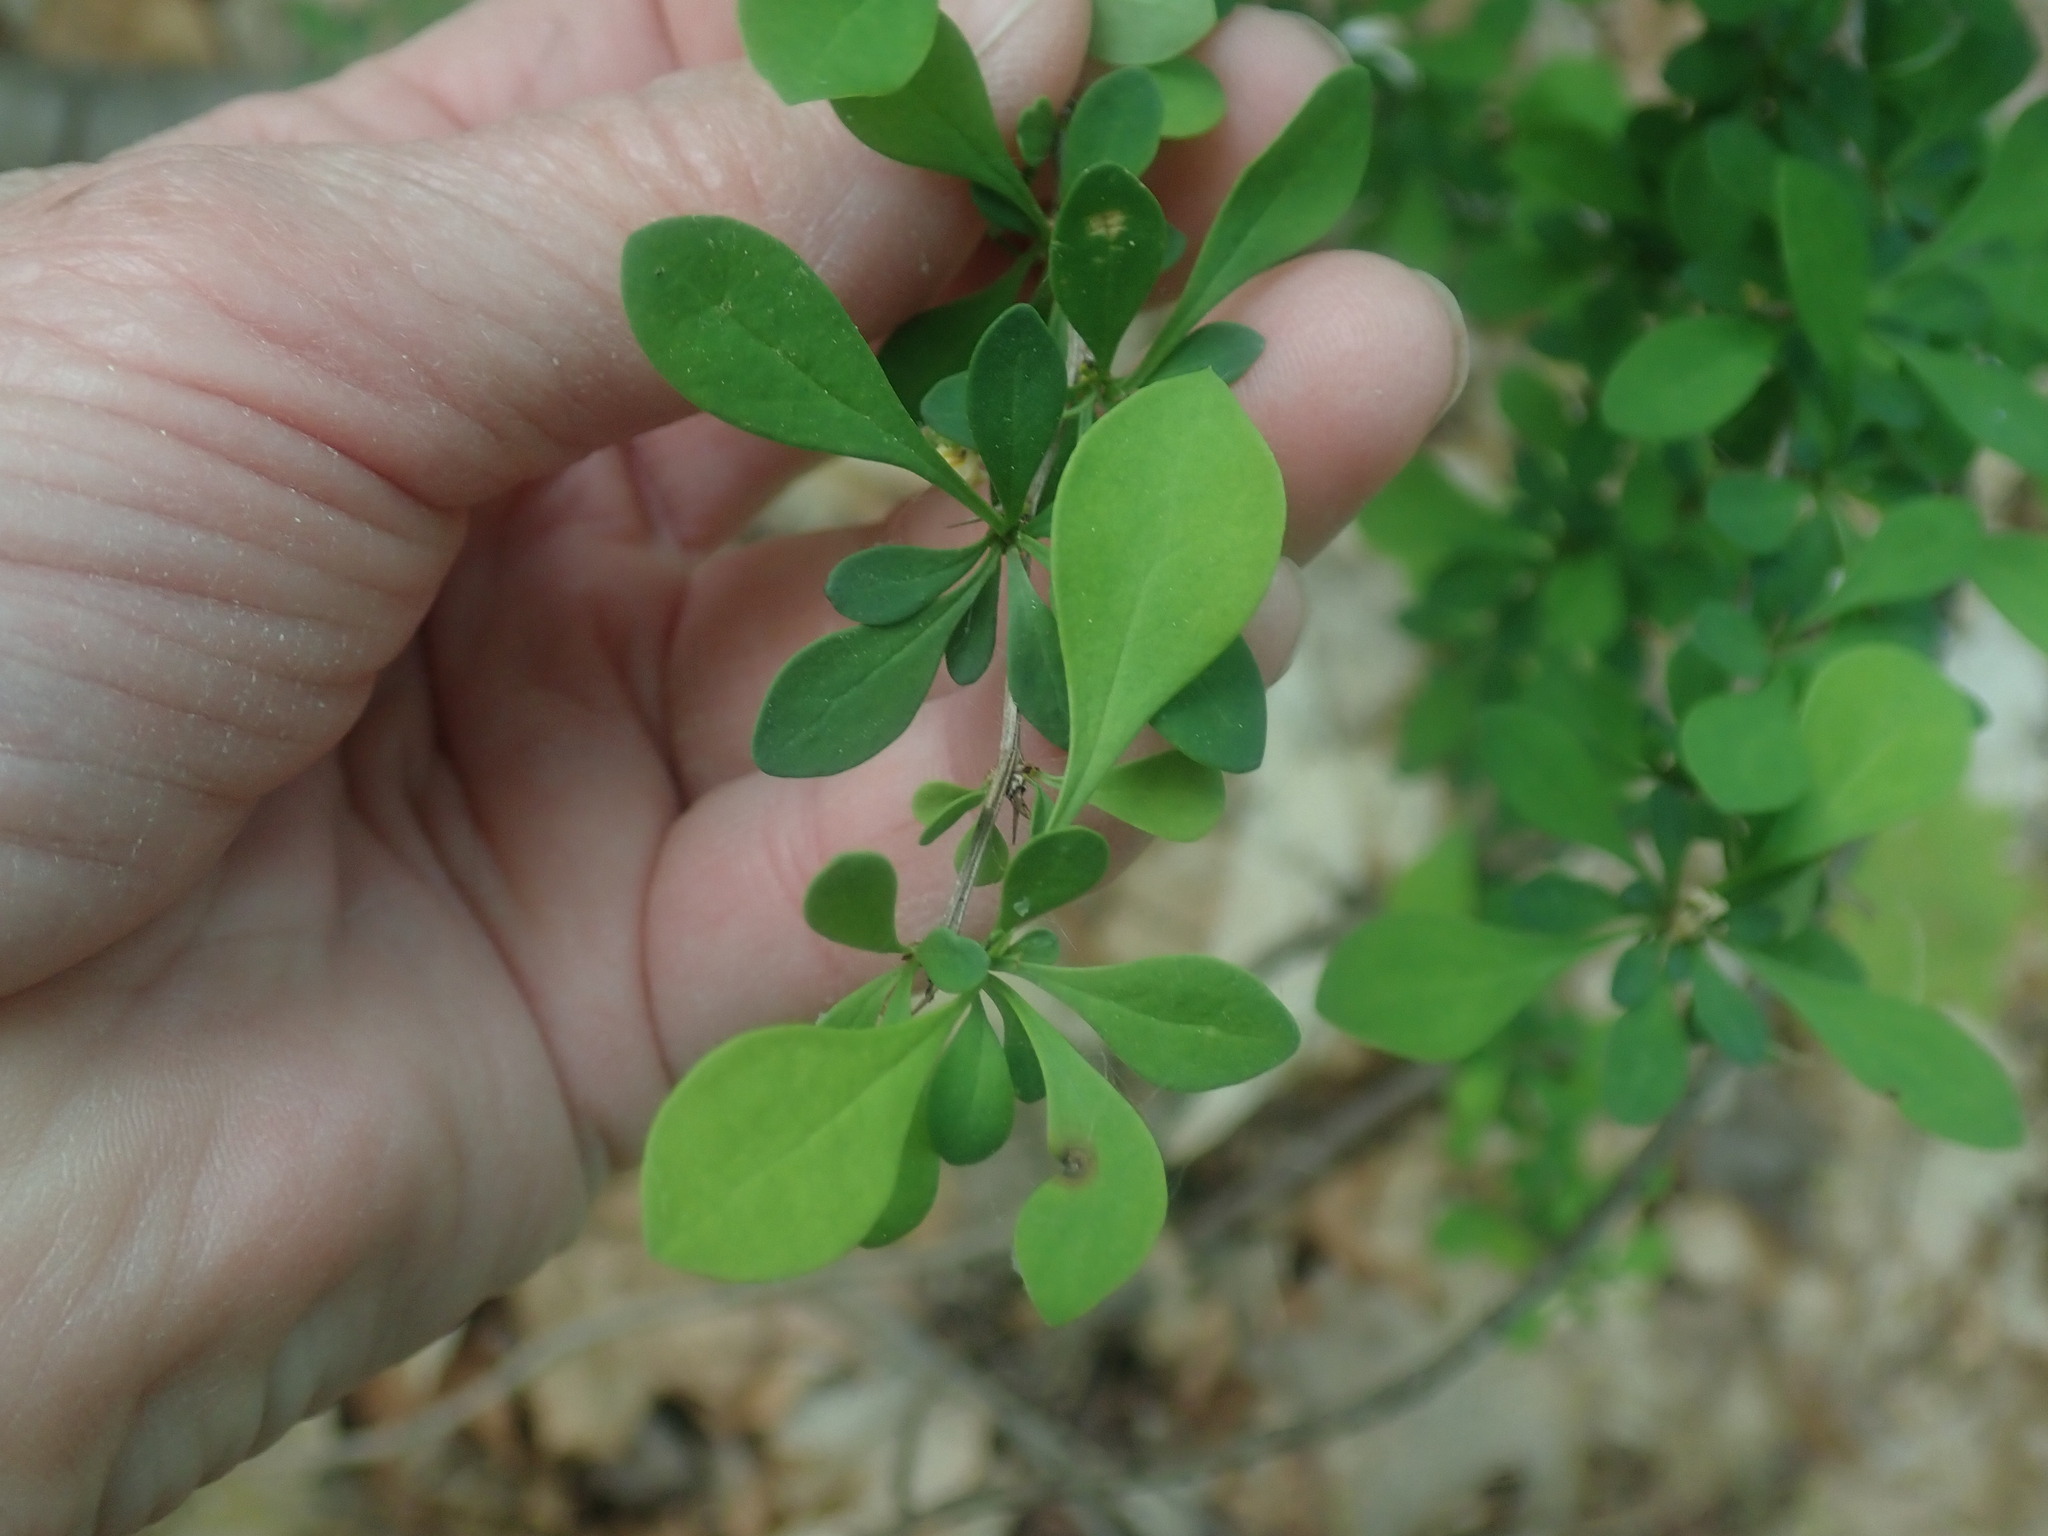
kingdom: Plantae
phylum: Tracheophyta
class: Magnoliopsida
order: Ranunculales
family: Berberidaceae
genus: Berberis
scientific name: Berberis thunbergii
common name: Japanese barberry
